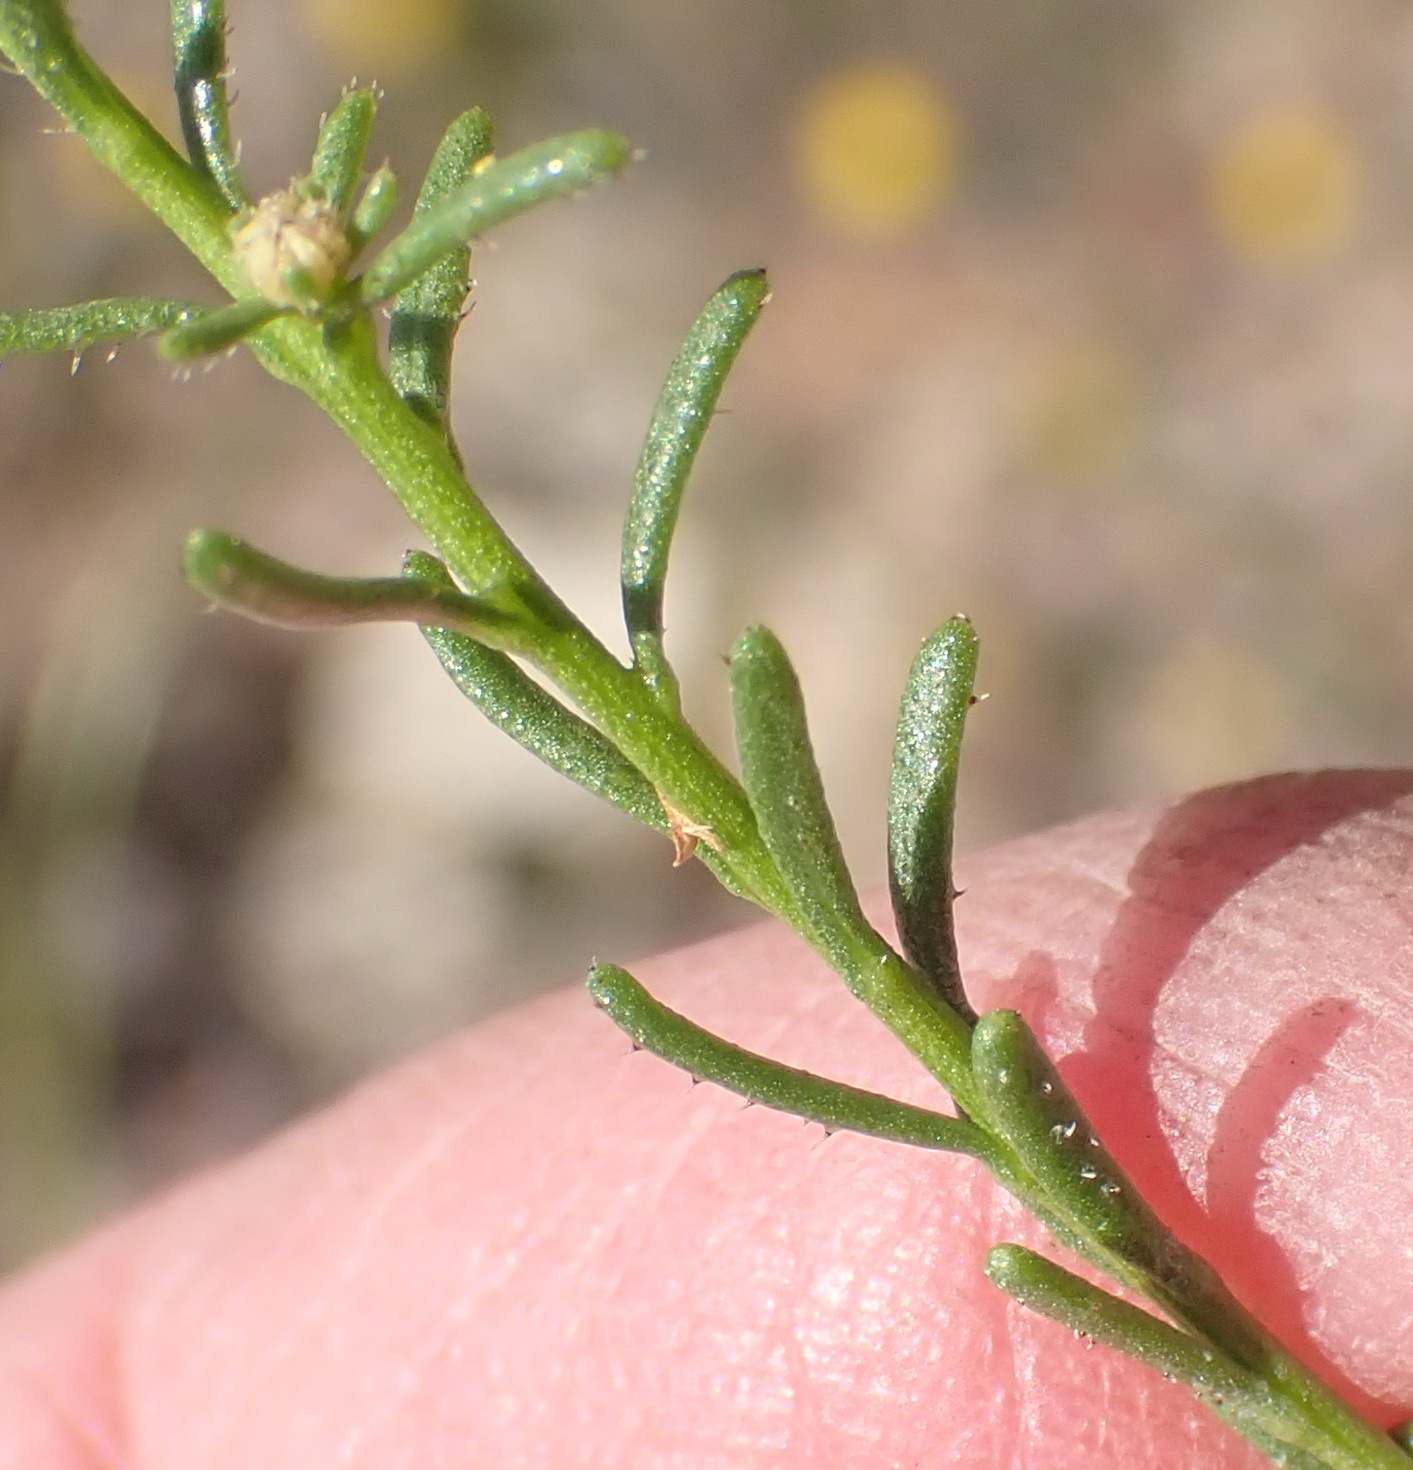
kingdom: Plantae
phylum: Tracheophyta
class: Magnoliopsida
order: Asterales
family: Asteraceae
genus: Chrysocoma
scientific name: Chrysocoma ciliata
